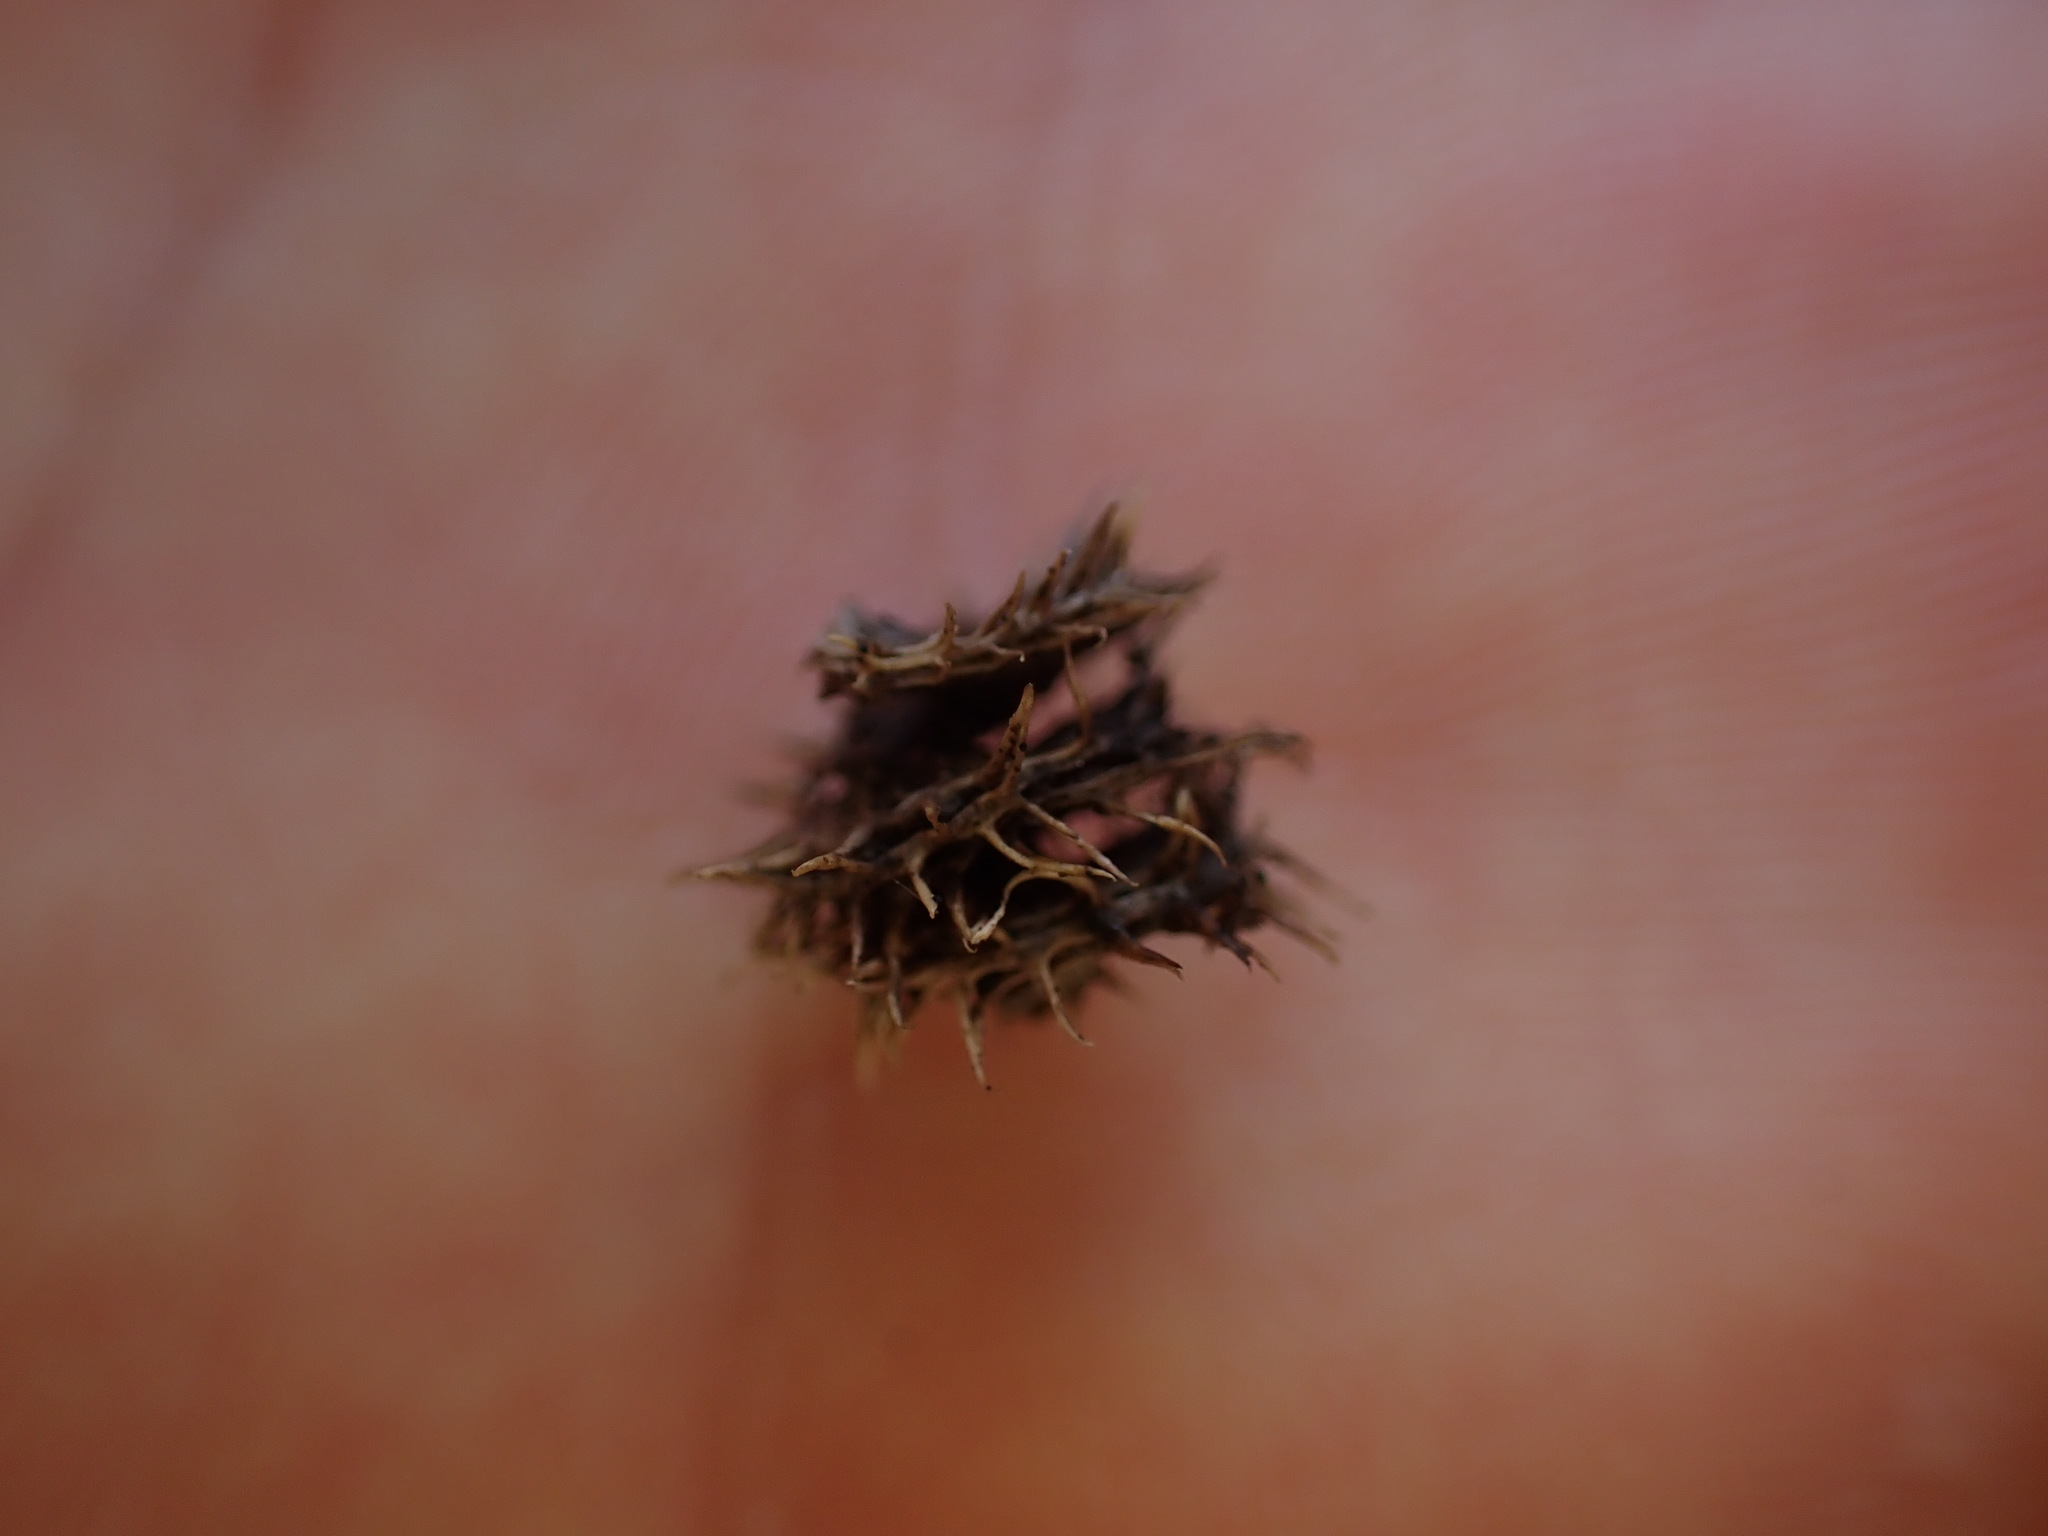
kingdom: Plantae
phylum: Tracheophyta
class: Magnoliopsida
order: Fabales
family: Fabaceae
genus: Medicago
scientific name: Medicago polymorpha
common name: Burclover
